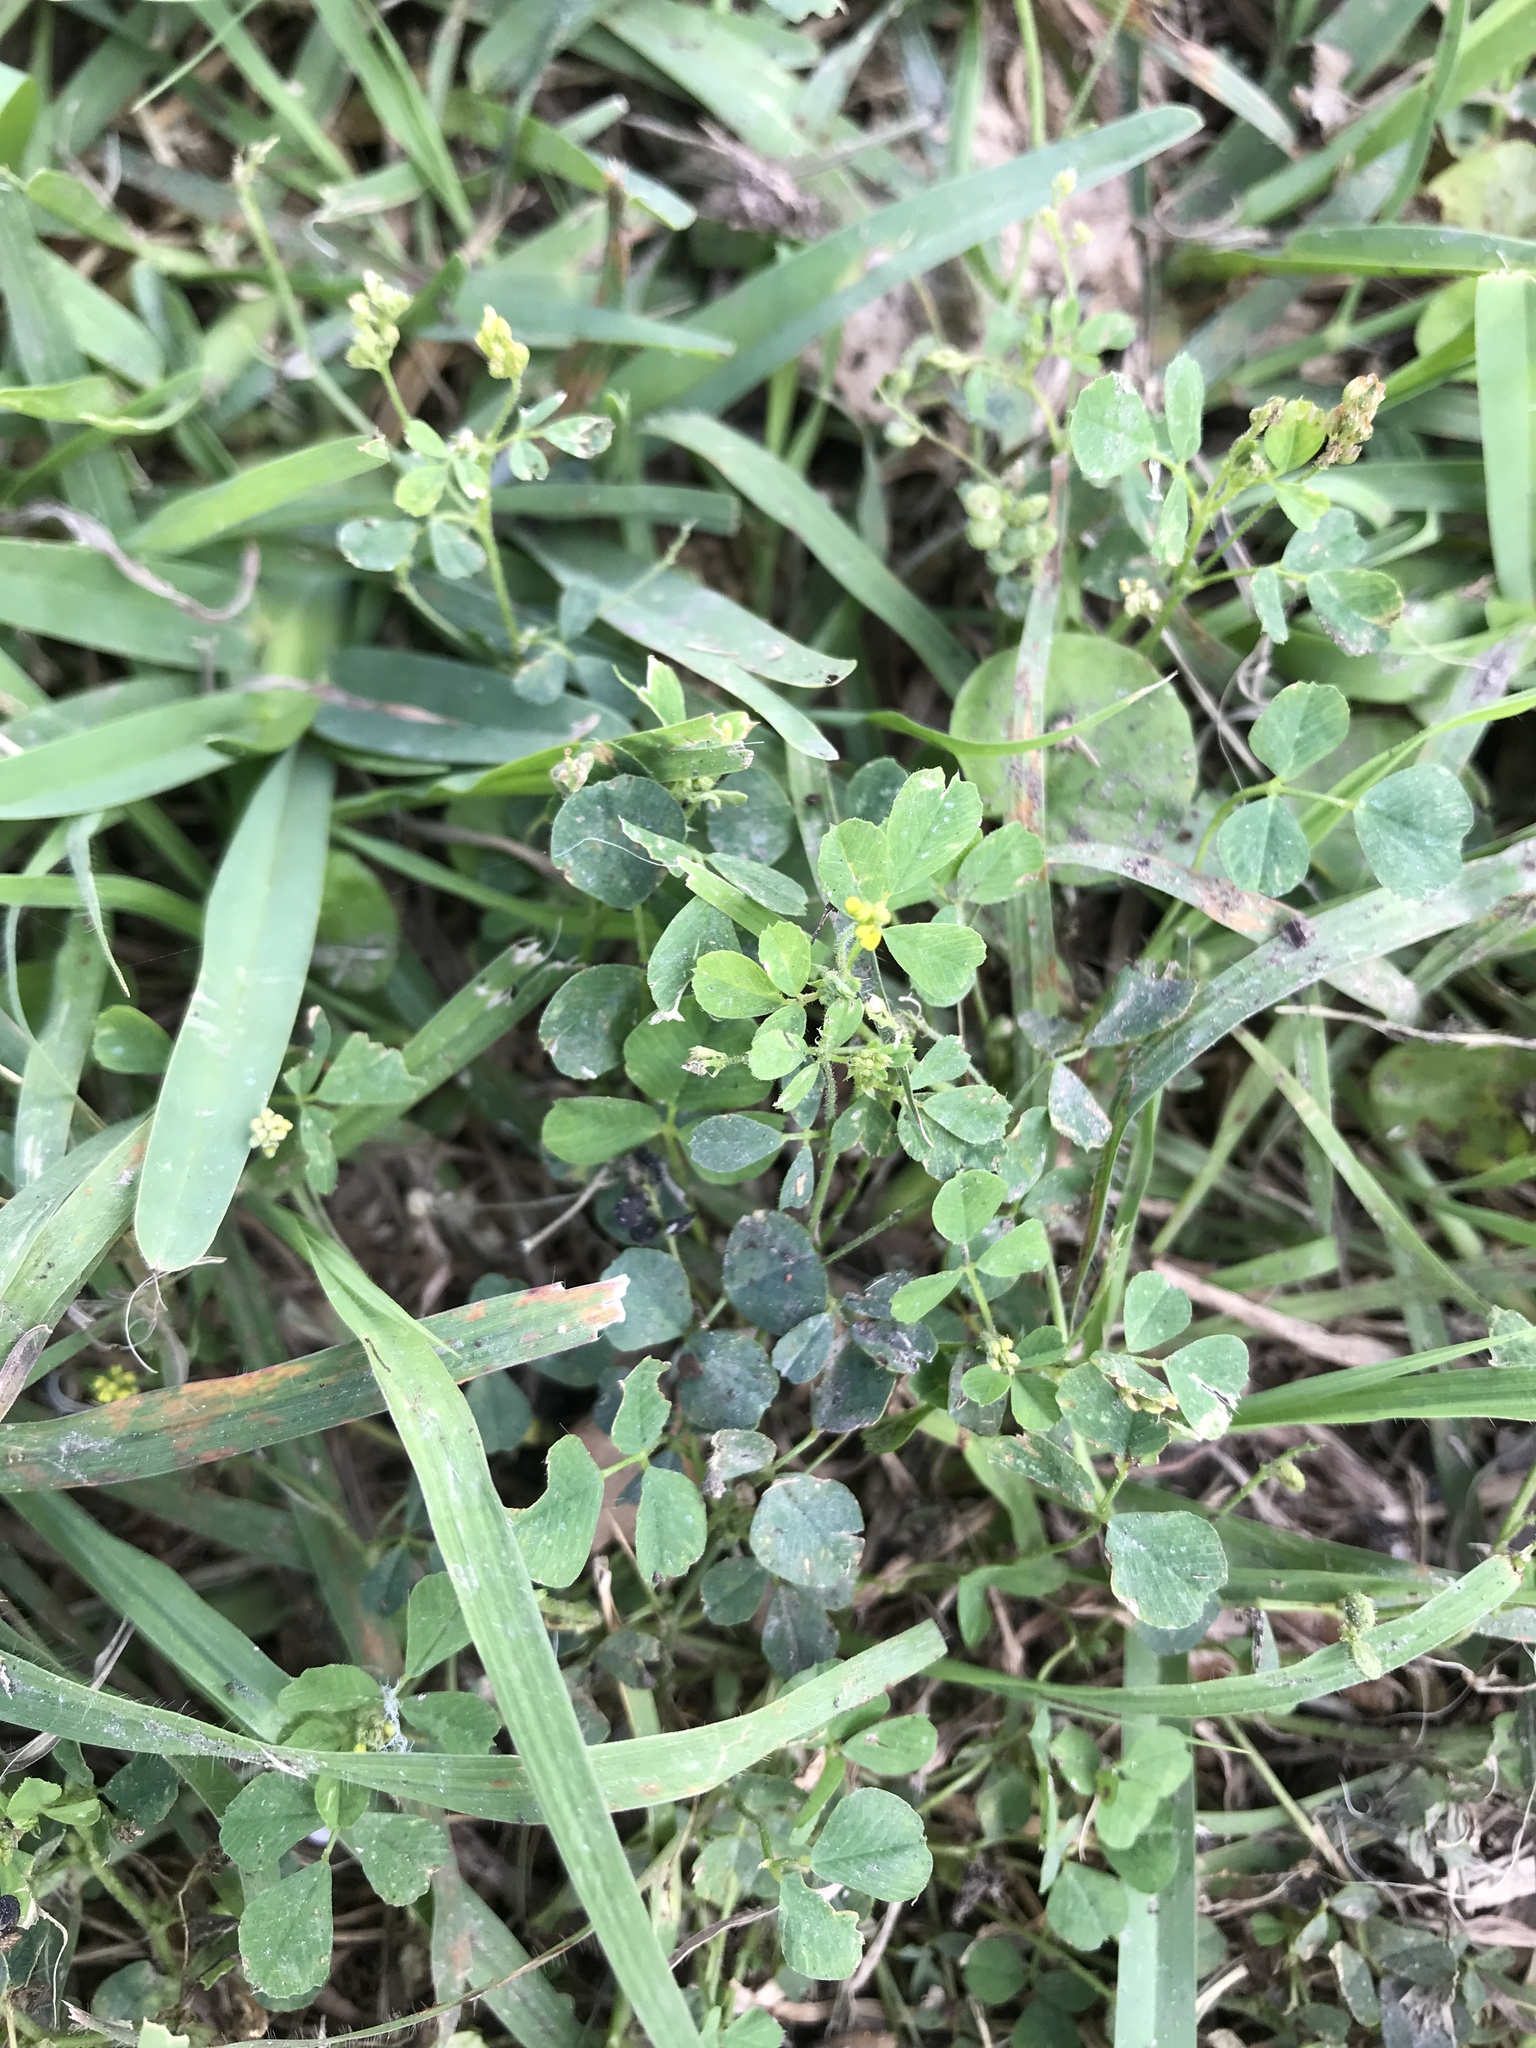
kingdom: Plantae
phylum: Tracheophyta
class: Magnoliopsida
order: Fabales
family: Fabaceae
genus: Medicago
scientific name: Medicago lupulina
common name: Black medick
